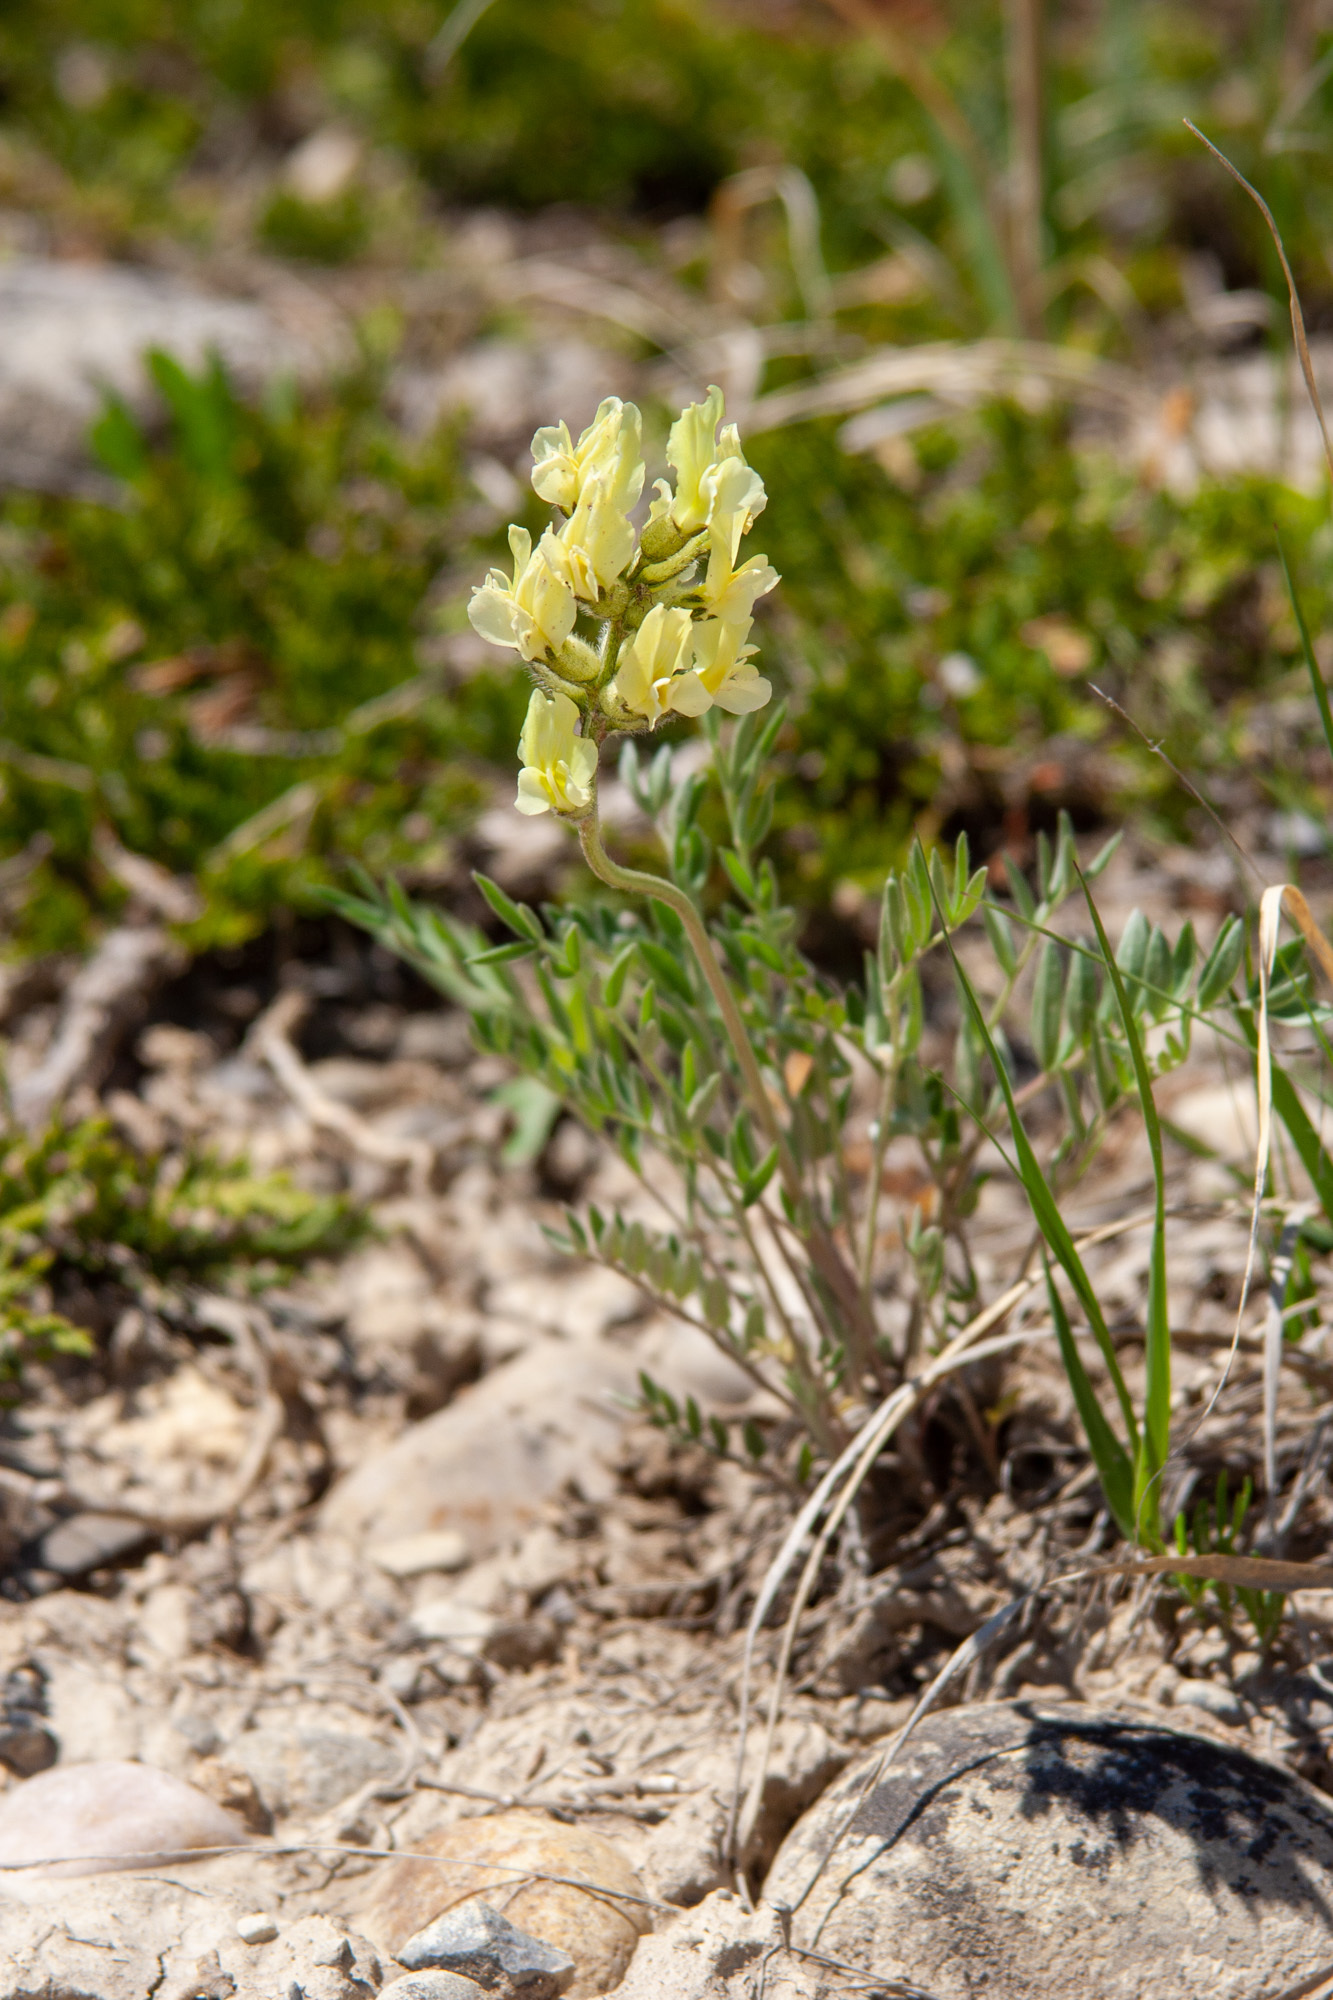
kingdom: Plantae
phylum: Tracheophyta
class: Magnoliopsida
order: Fabales
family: Fabaceae
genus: Oxytropis
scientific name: Oxytropis sericea
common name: Silky locoweed
